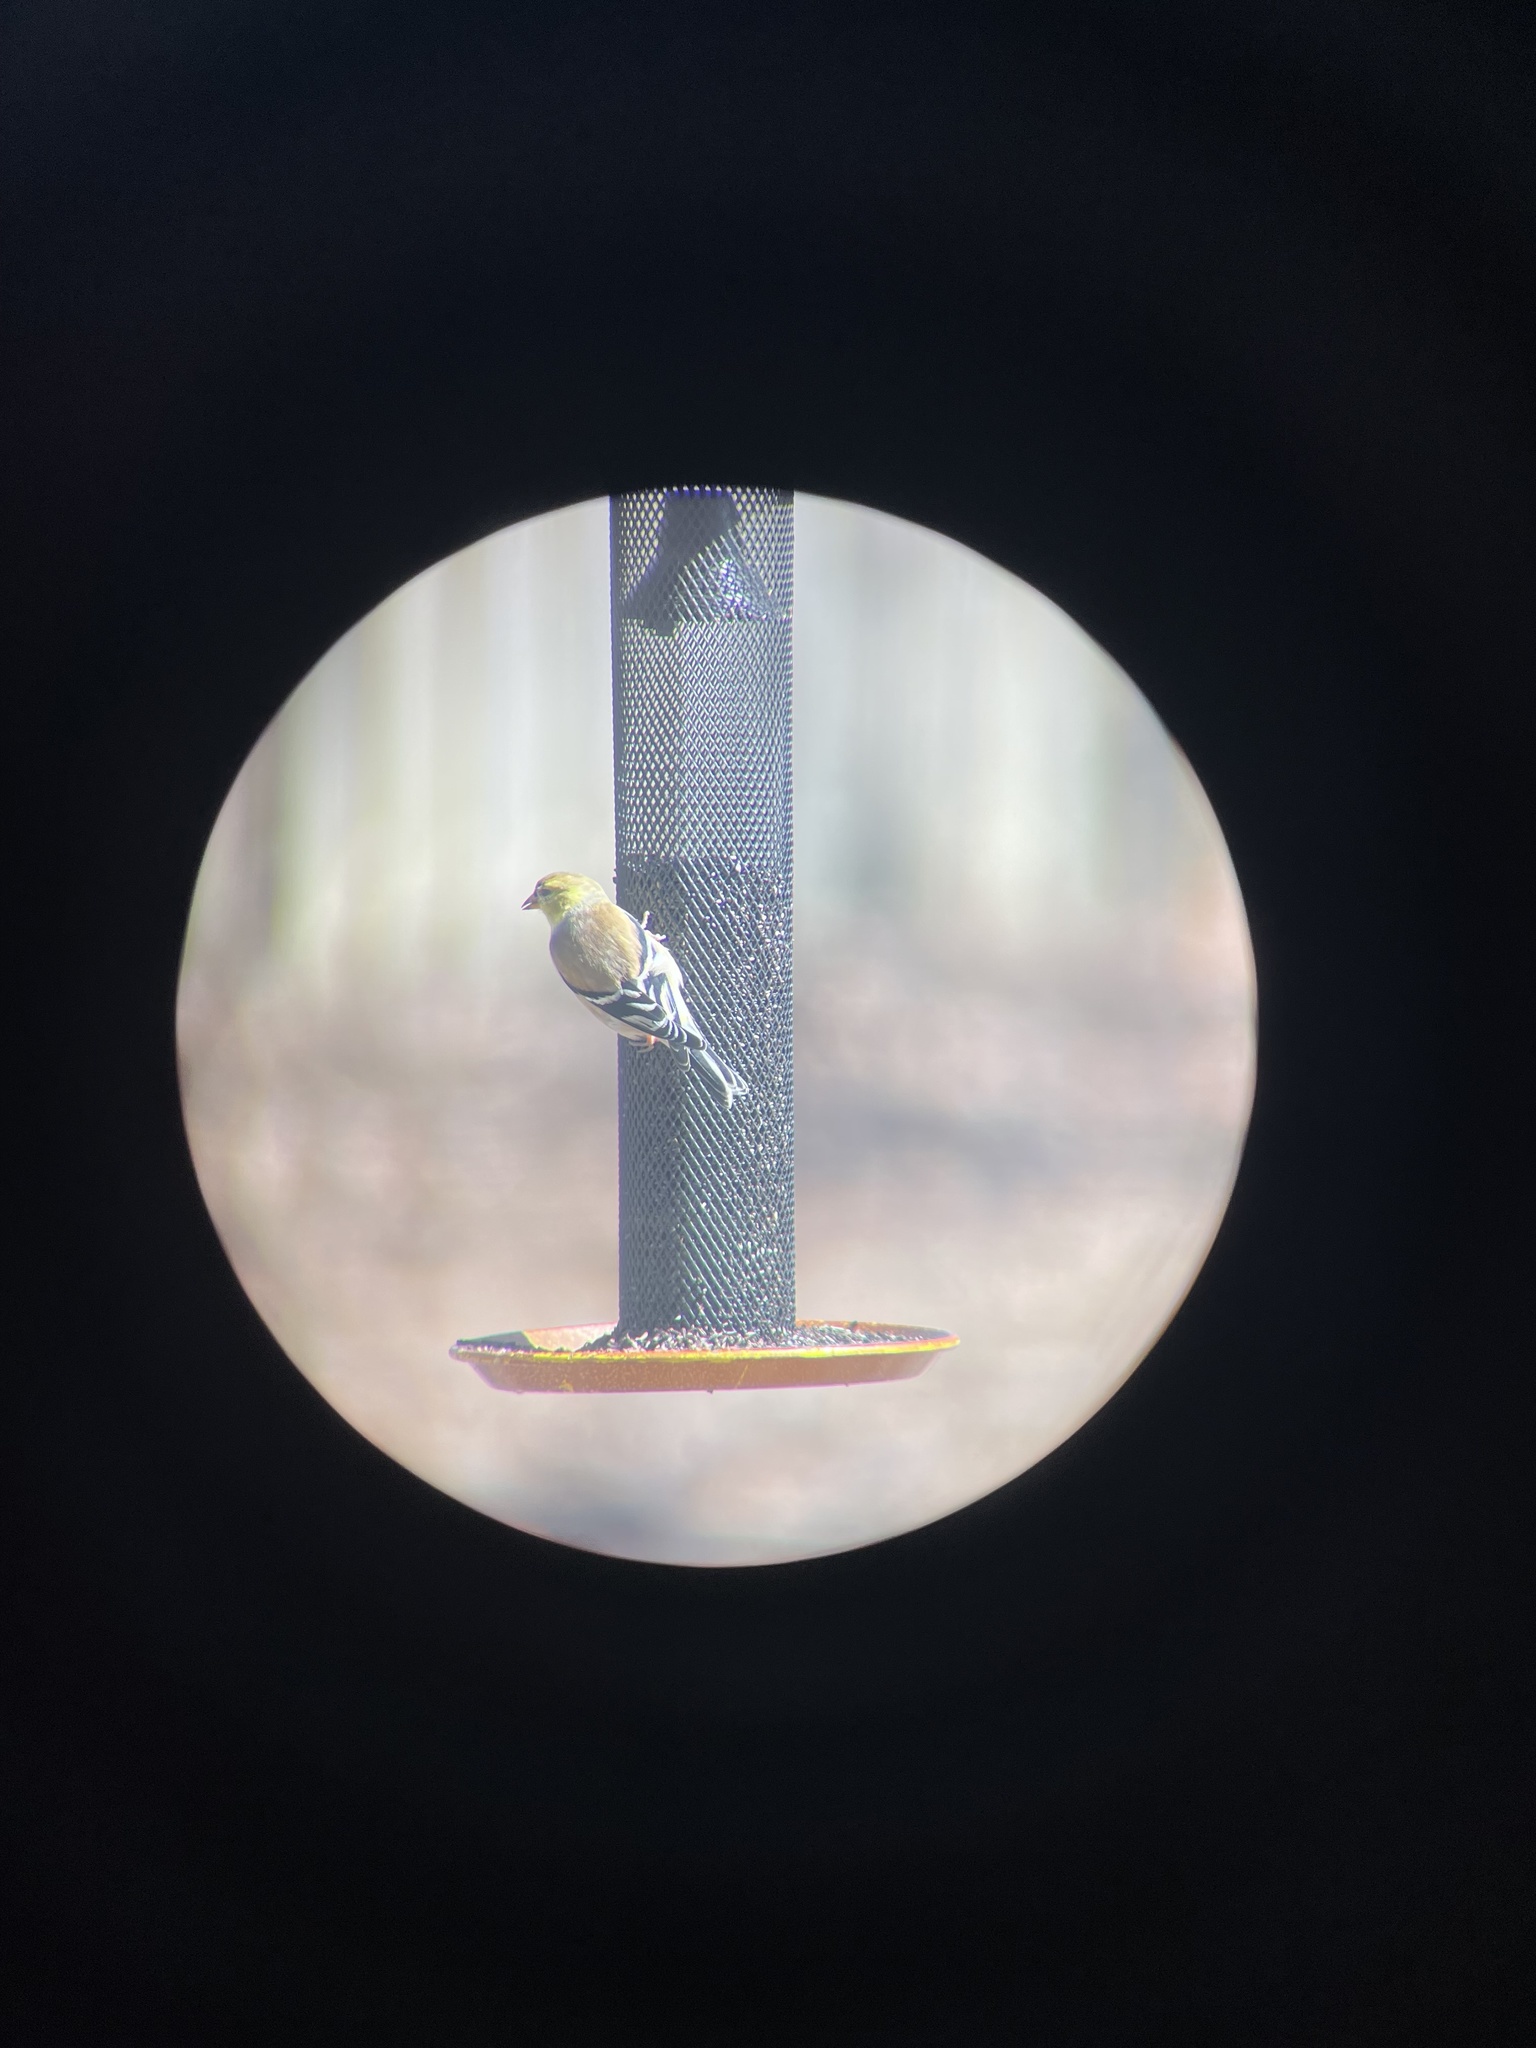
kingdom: Animalia
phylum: Chordata
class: Aves
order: Passeriformes
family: Fringillidae
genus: Spinus
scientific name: Spinus tristis
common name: American goldfinch
